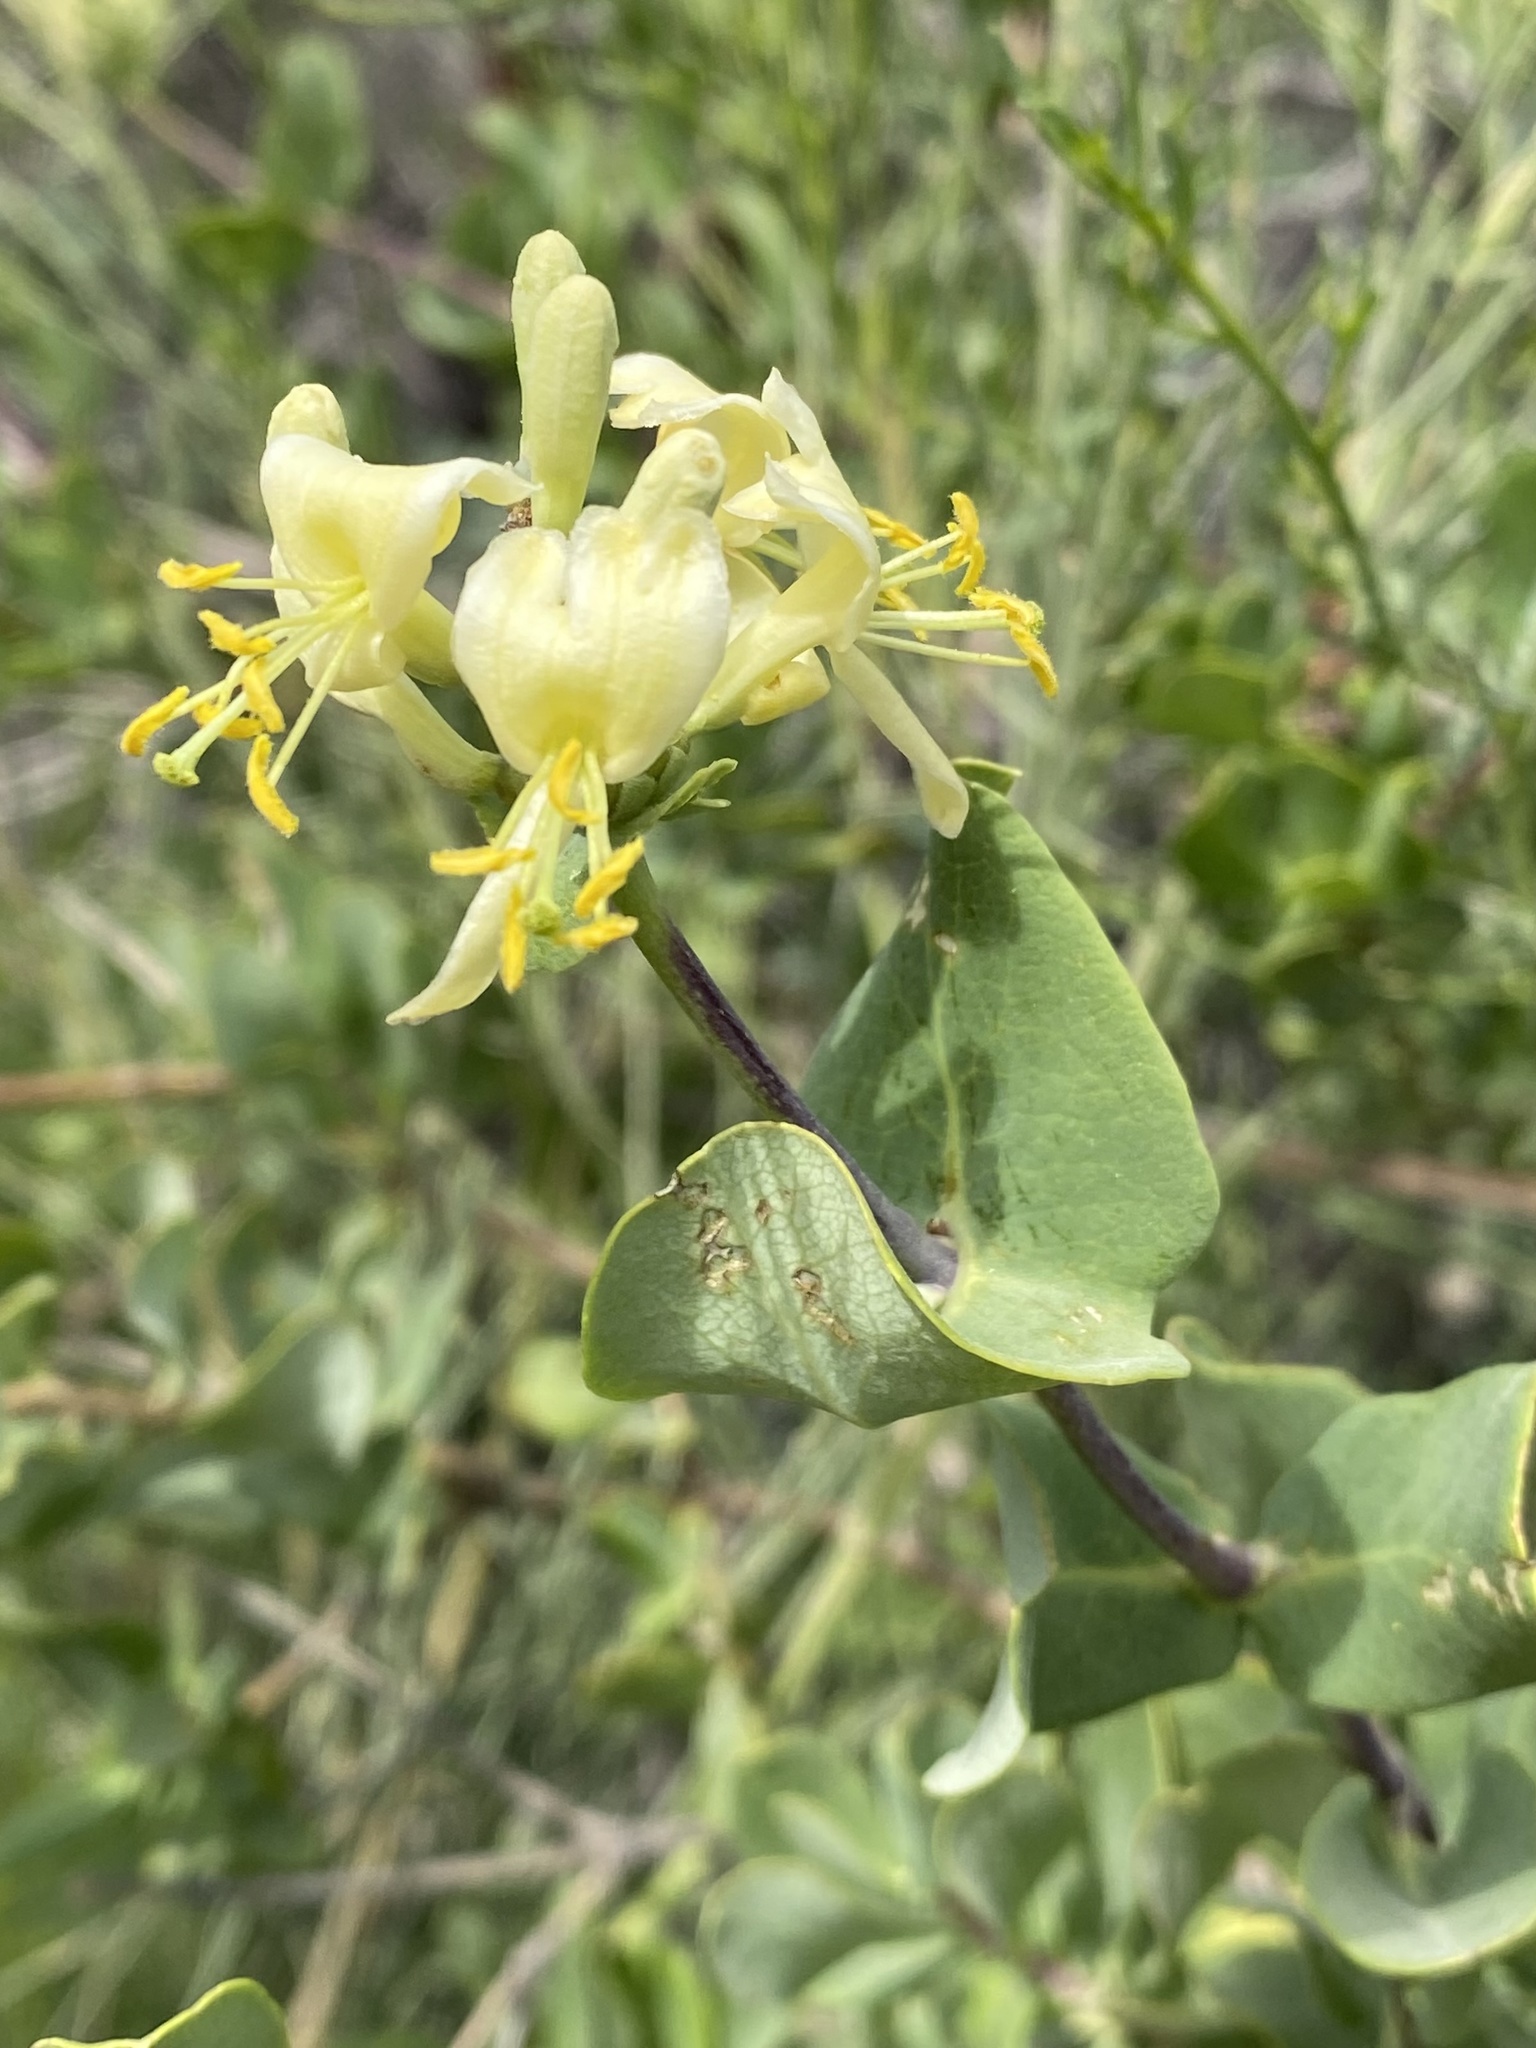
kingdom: Plantae
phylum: Tracheophyta
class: Magnoliopsida
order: Dipsacales
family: Caprifoliaceae
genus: Lonicera
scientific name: Lonicera interrupta
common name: Chaparral honeysuckle
